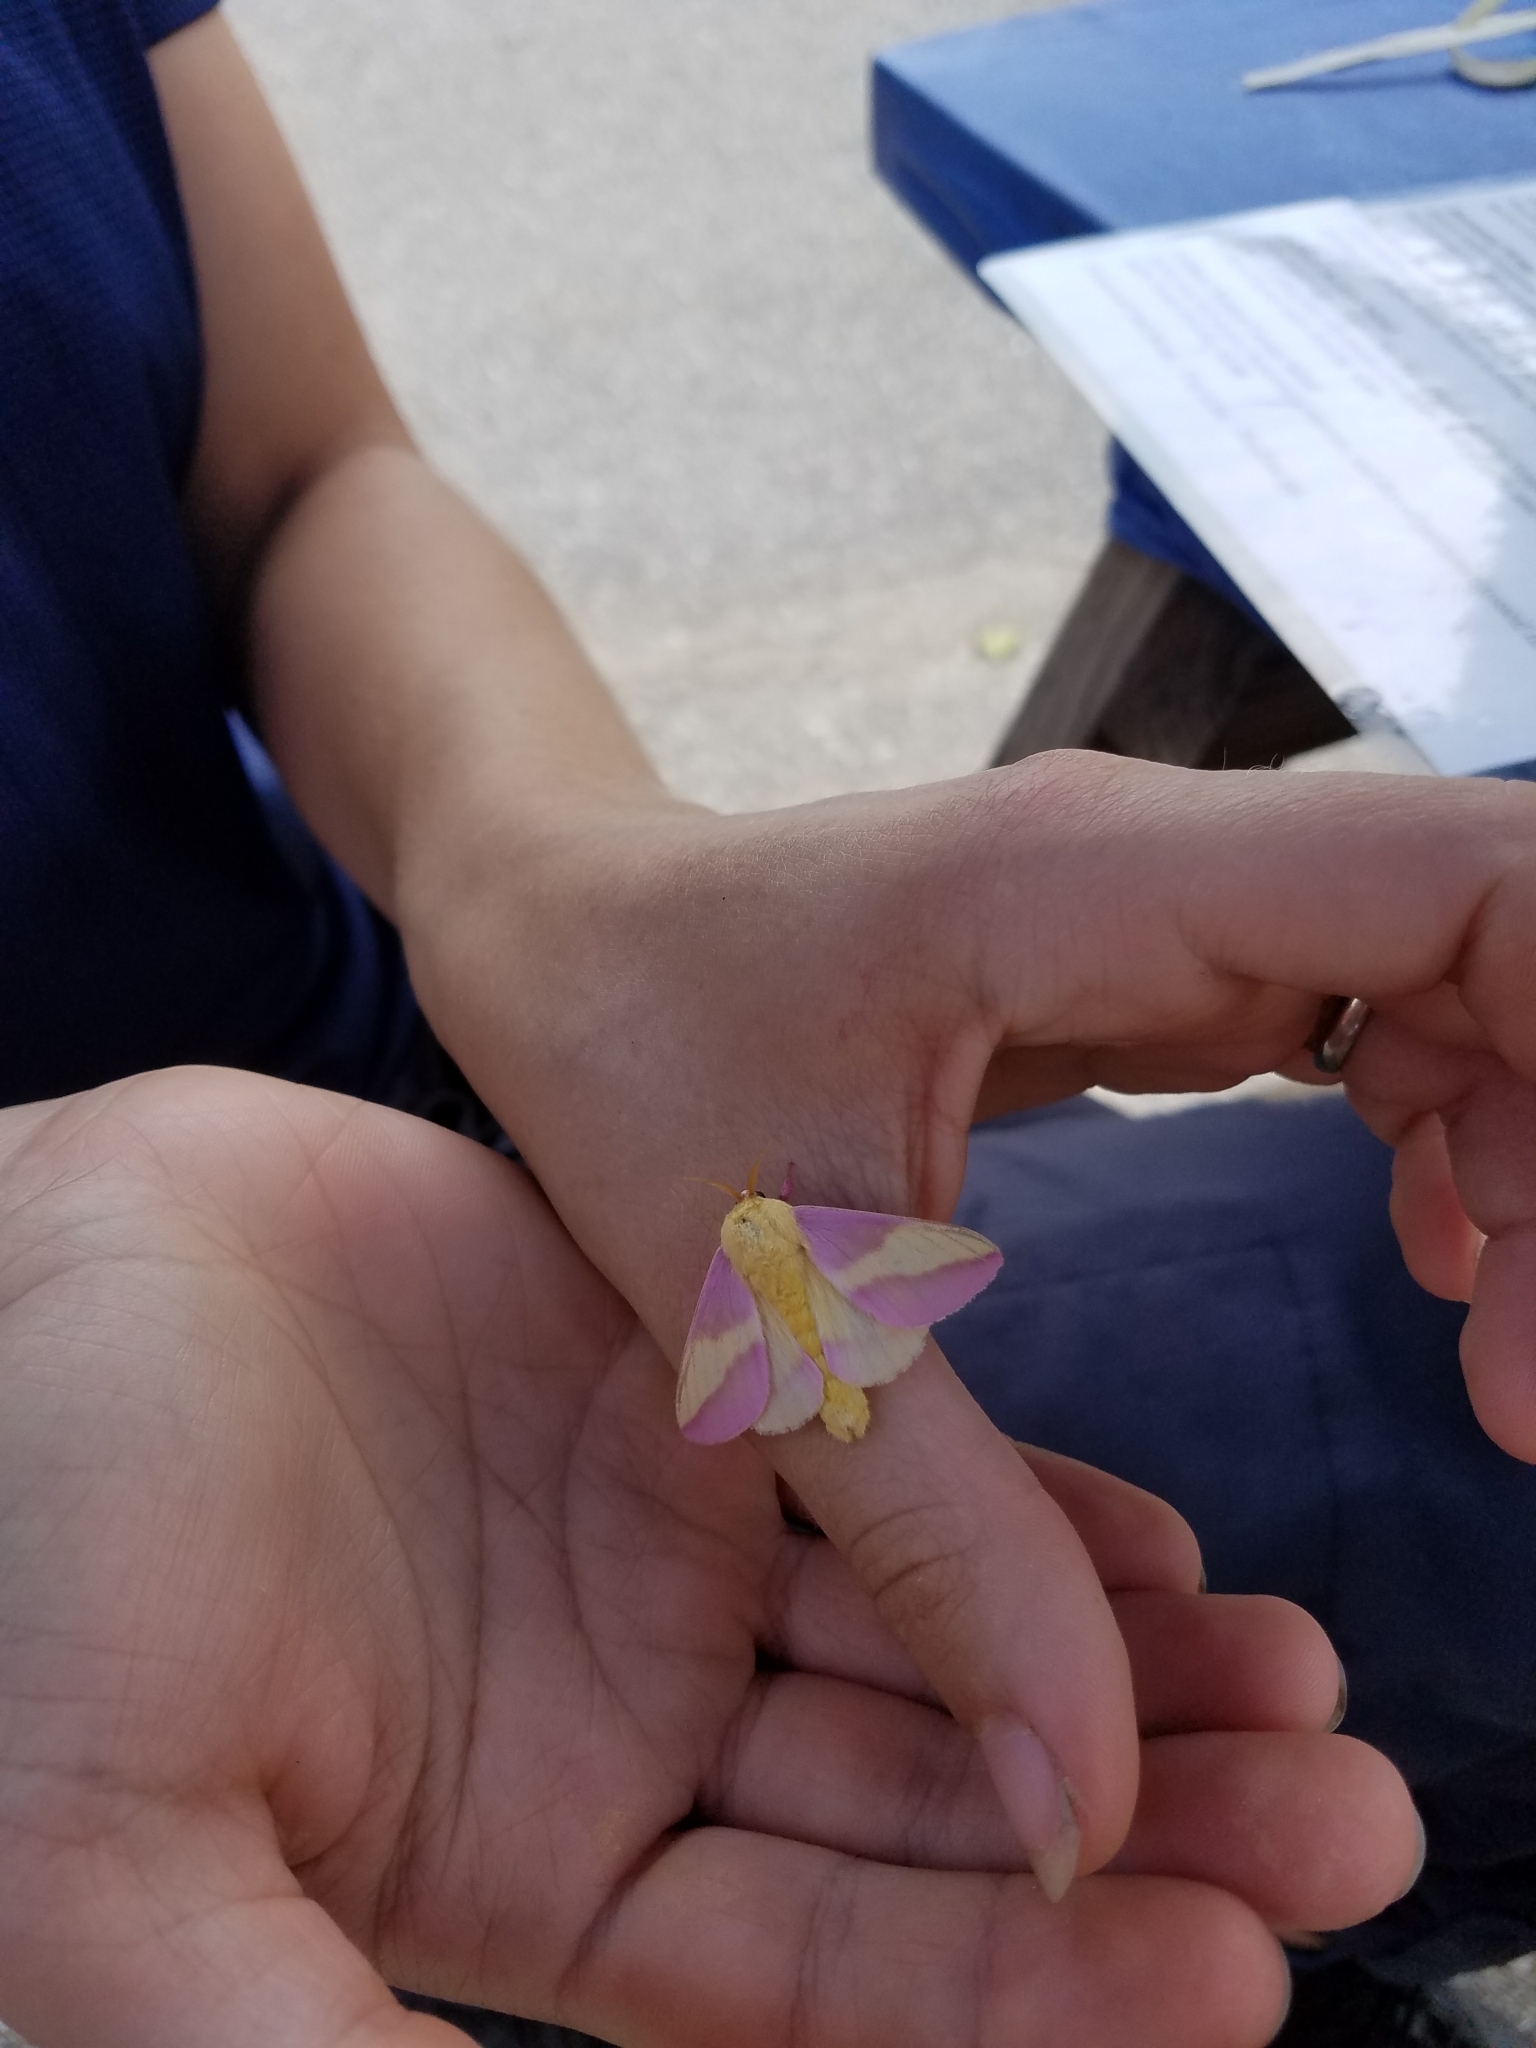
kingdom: Animalia
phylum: Arthropoda
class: Insecta
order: Lepidoptera
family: Saturniidae
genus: Dryocampa
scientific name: Dryocampa rubicunda
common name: Rosy maple moth
